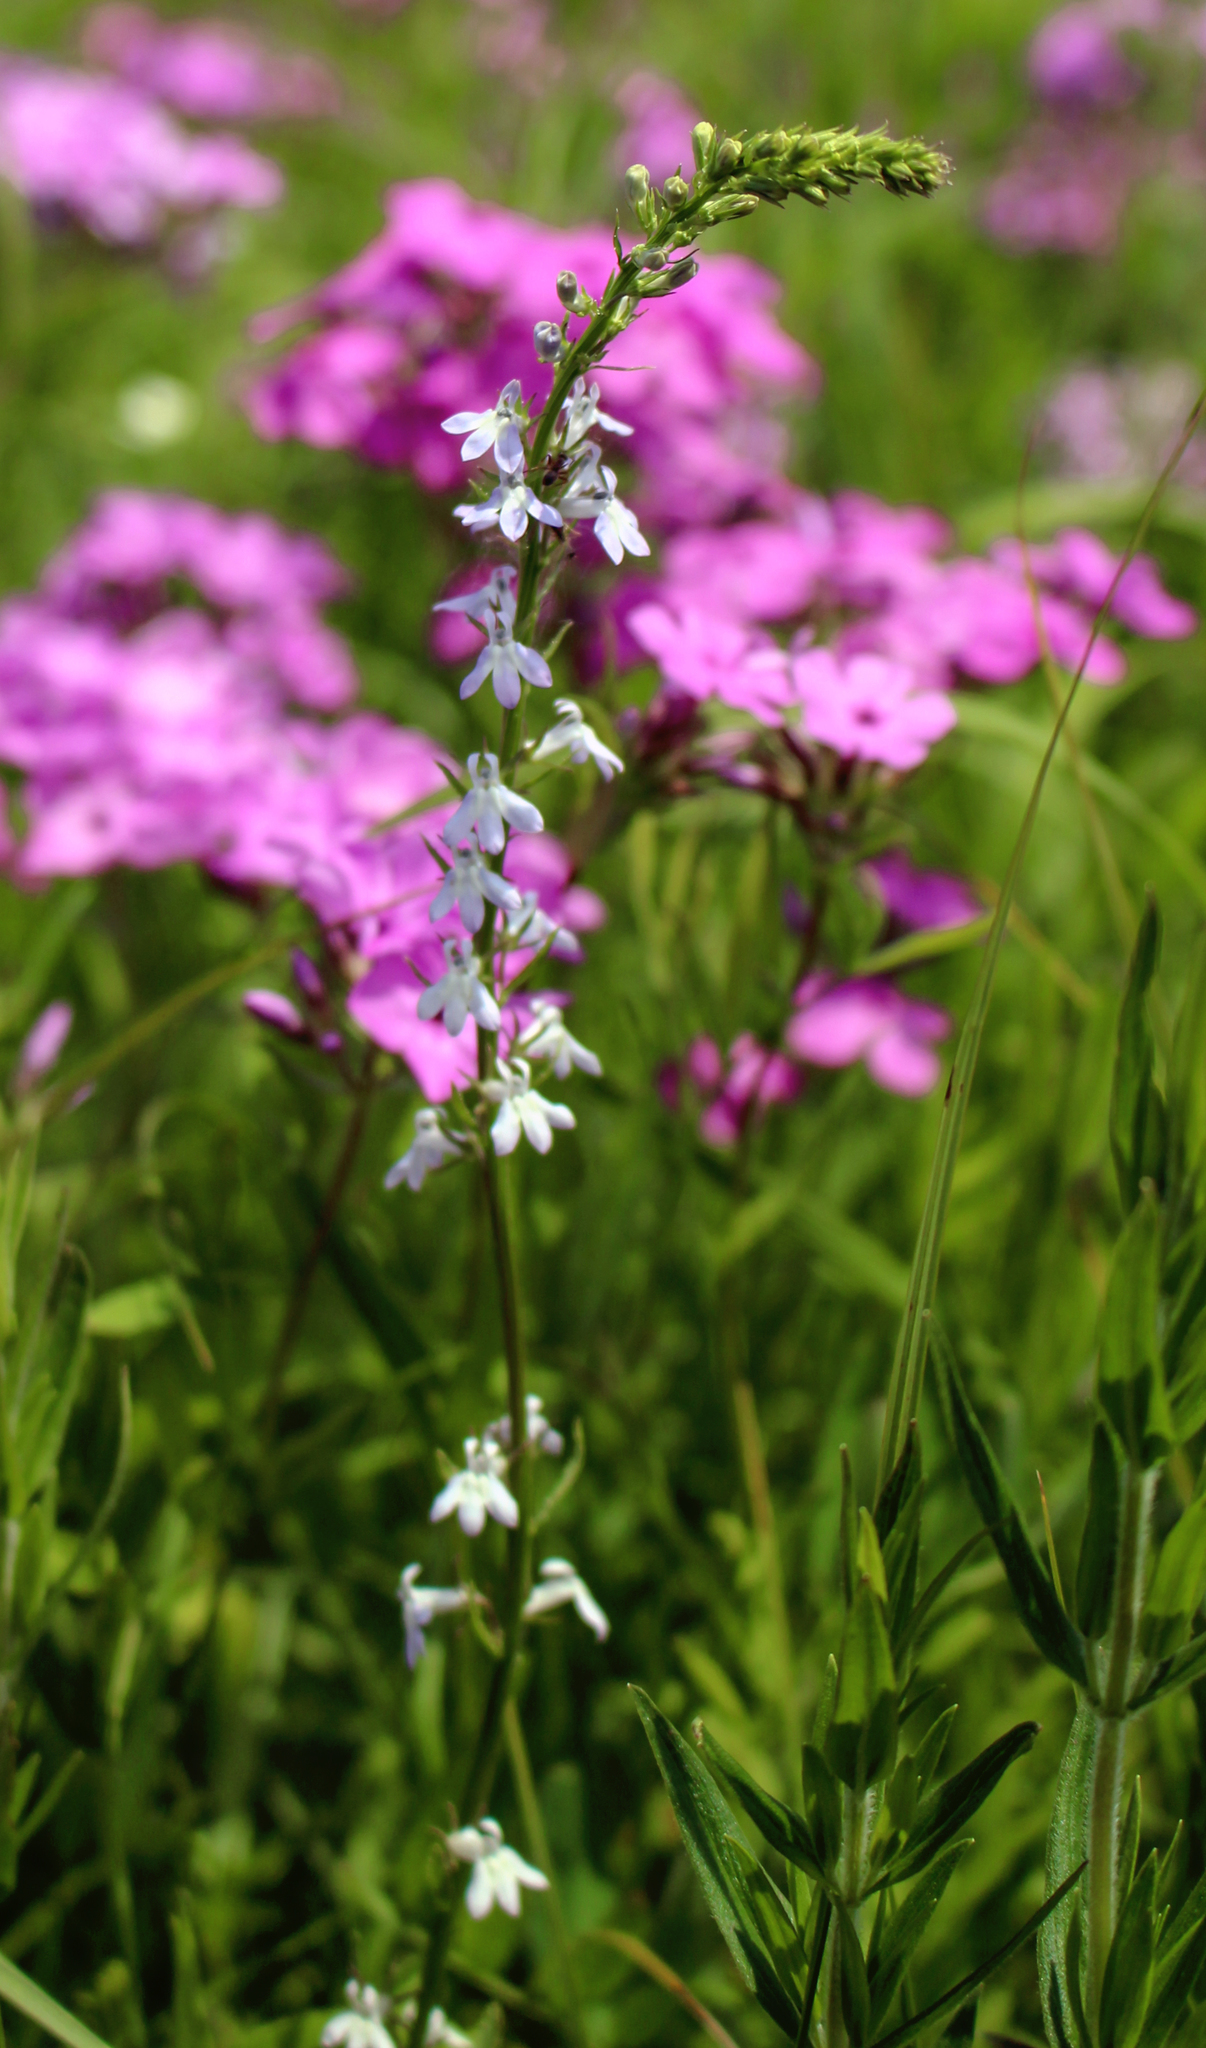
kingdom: Plantae
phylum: Tracheophyta
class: Magnoliopsida
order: Asterales
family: Campanulaceae
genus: Lobelia
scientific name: Lobelia spicata
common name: Pale-spike lobelia
